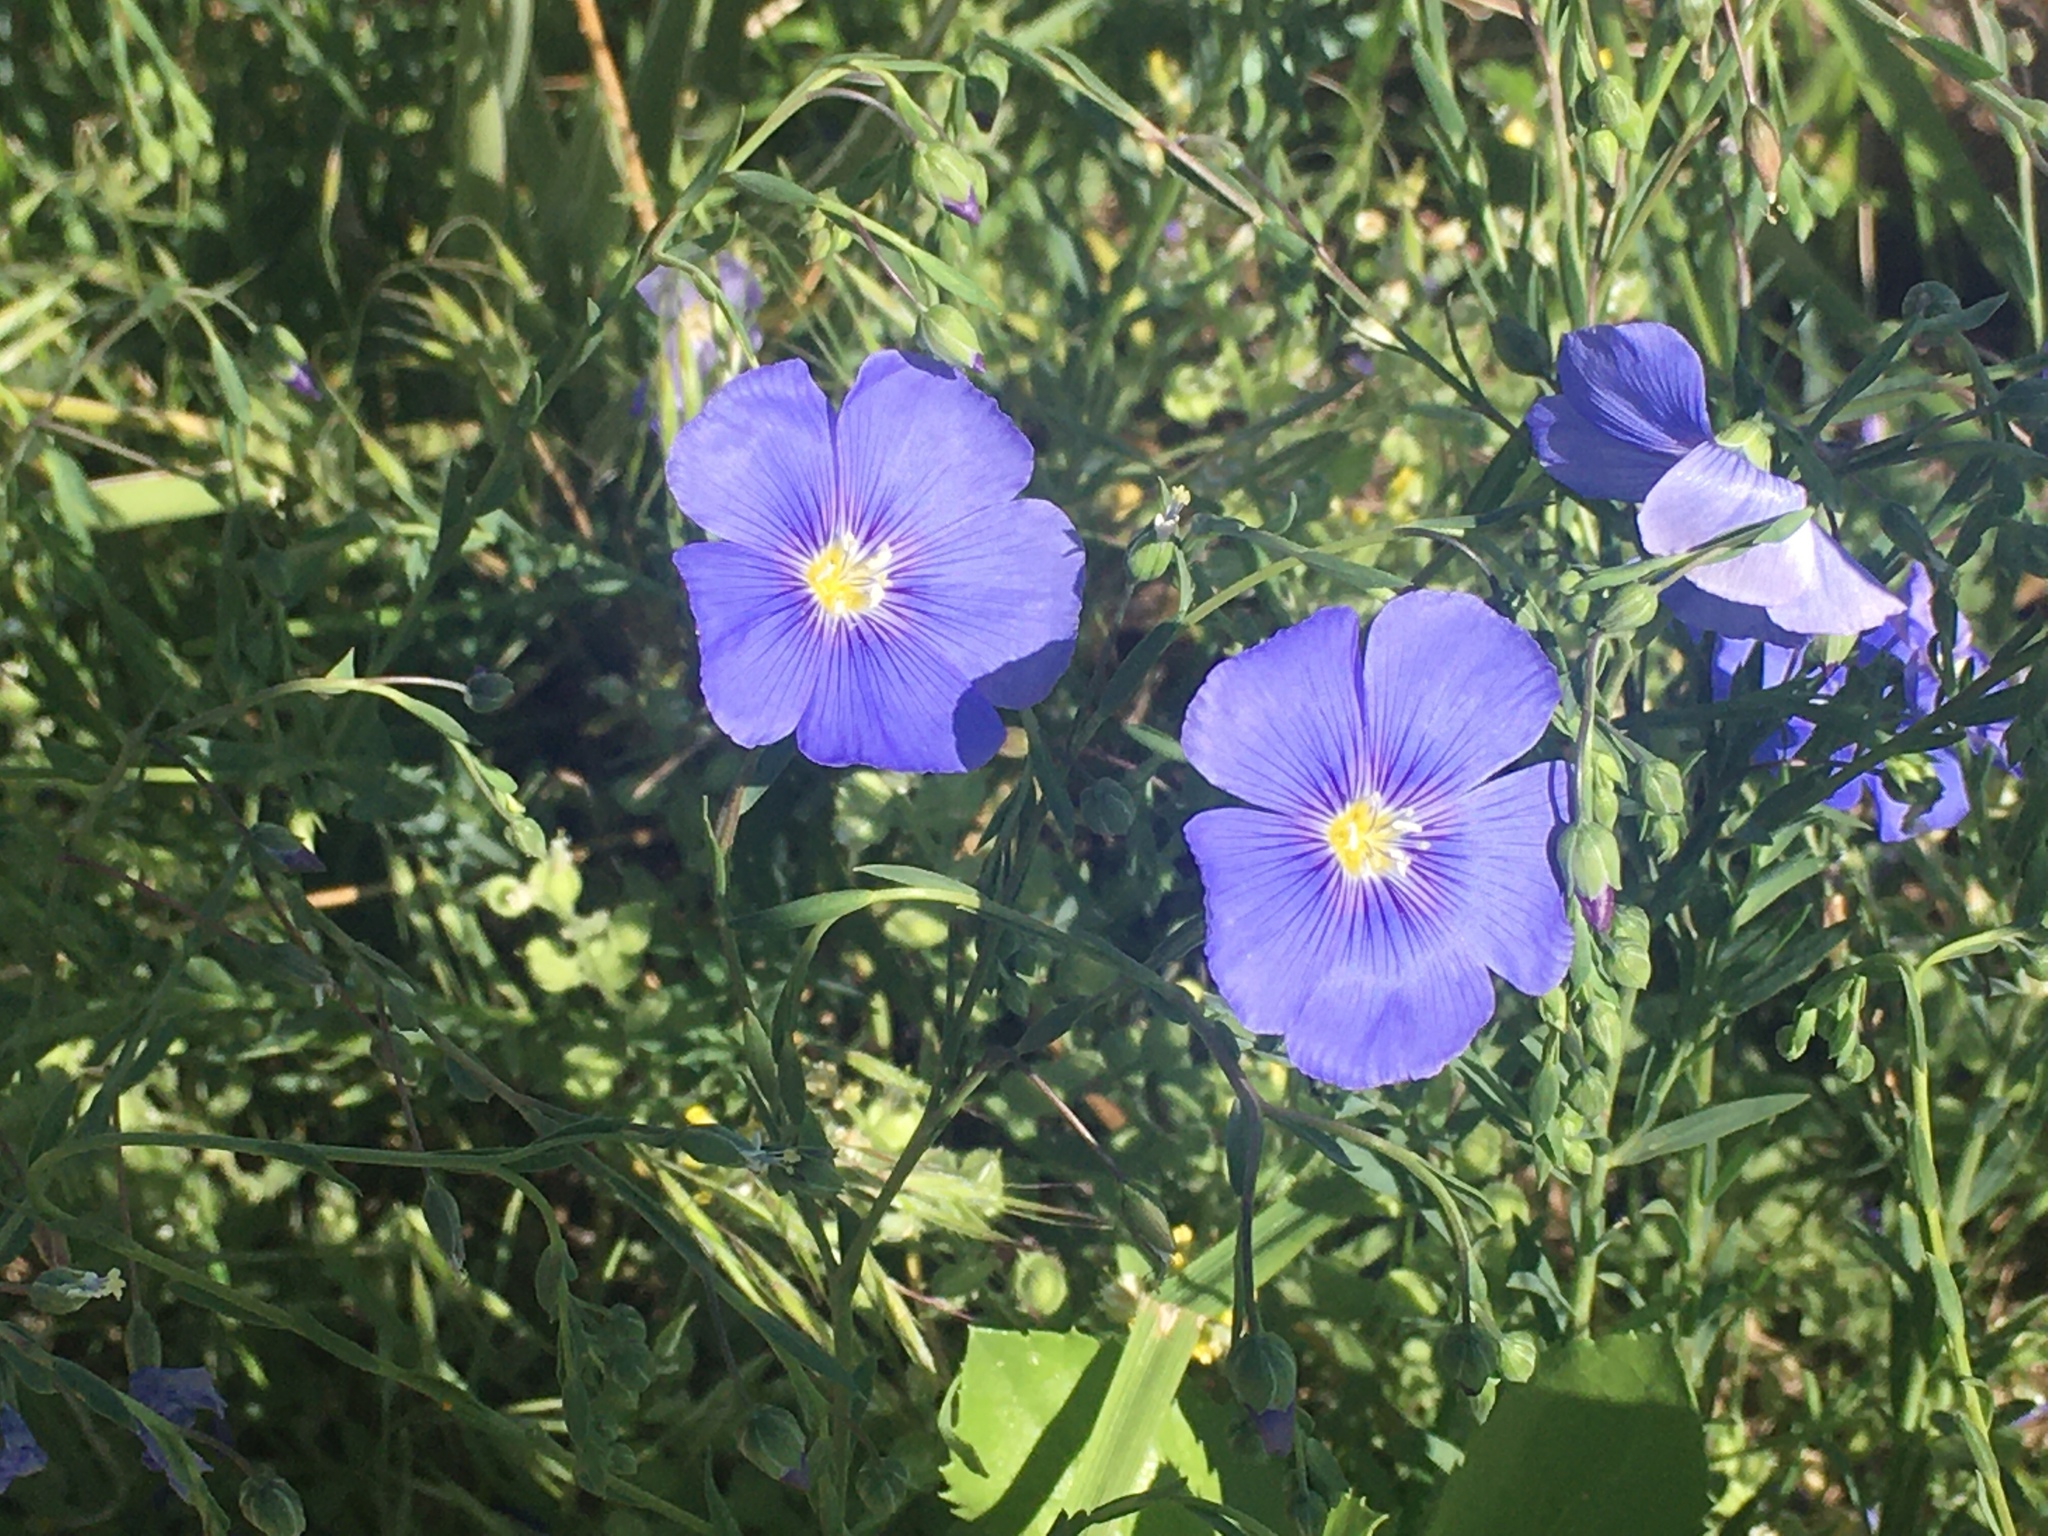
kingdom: Plantae
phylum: Tracheophyta
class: Magnoliopsida
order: Malpighiales
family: Linaceae
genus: Linum
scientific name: Linum lewisii
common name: Prairie flax
